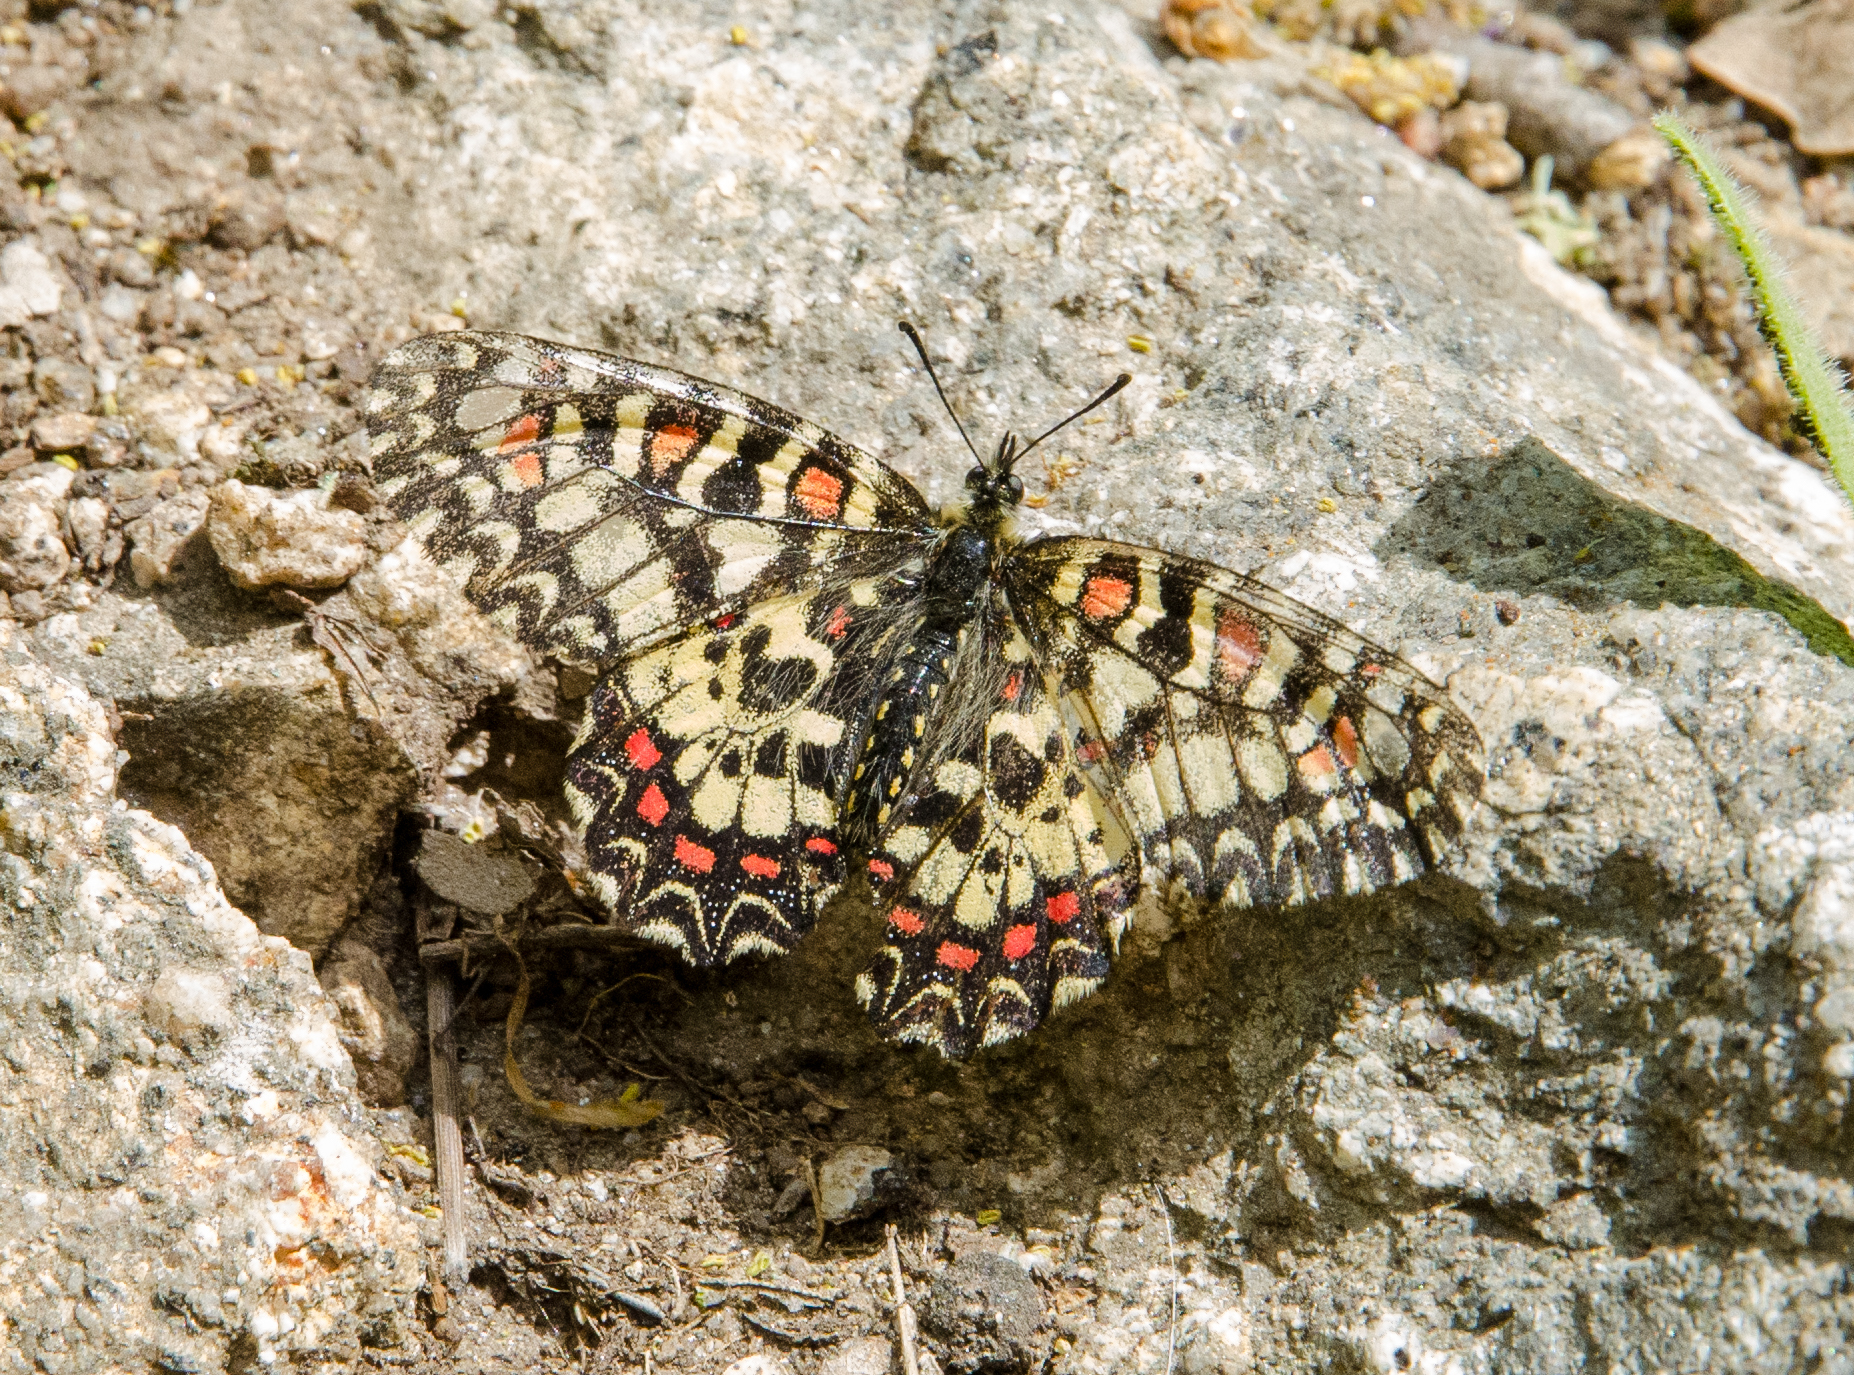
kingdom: Animalia
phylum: Arthropoda
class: Insecta
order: Lepidoptera
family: Papilionidae
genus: Zerynthia
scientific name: Zerynthia rumina
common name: Spanish festoon
